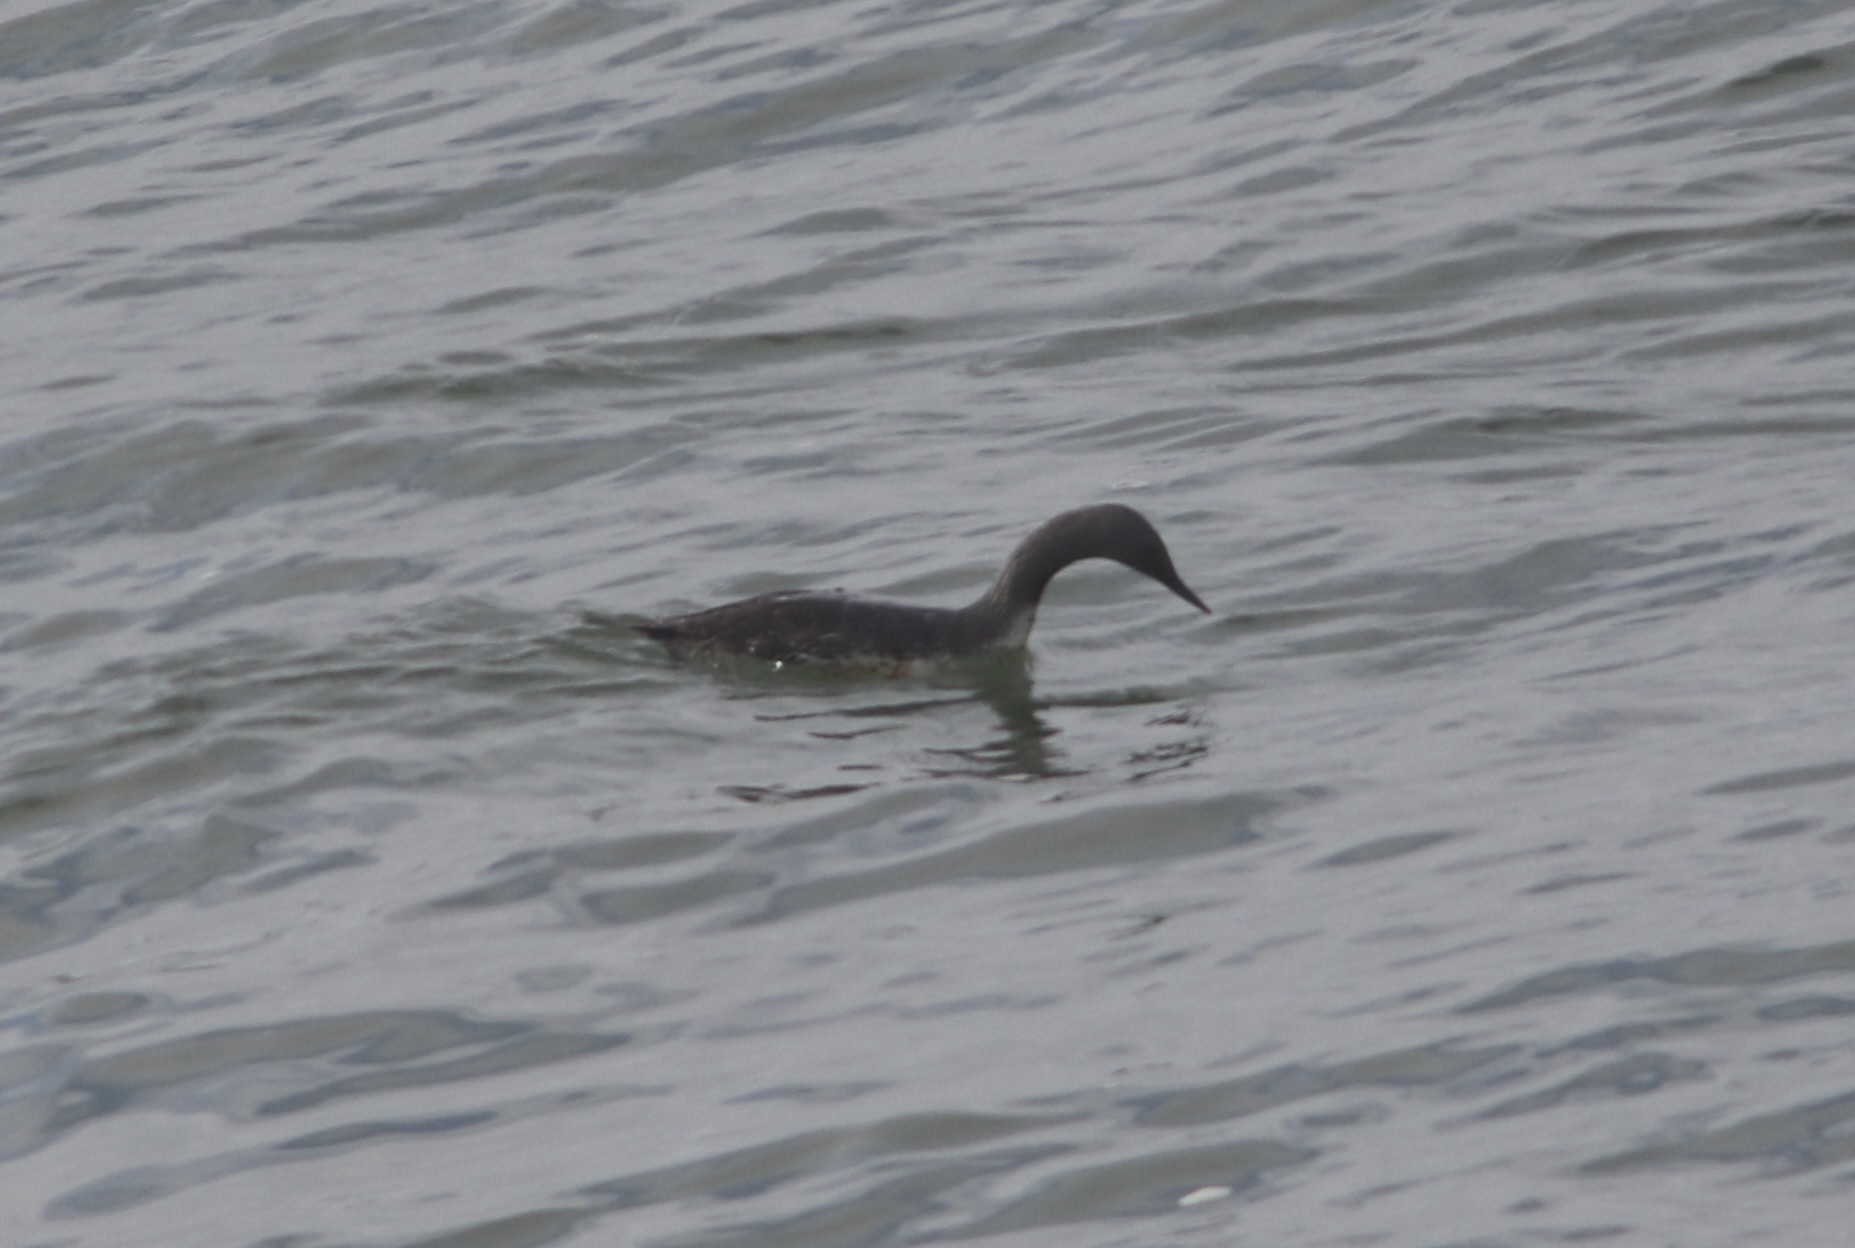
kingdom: Animalia
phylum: Chordata
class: Aves
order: Gaviiformes
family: Gaviidae
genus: Gavia
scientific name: Gavia stellata
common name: Red-throated loon
